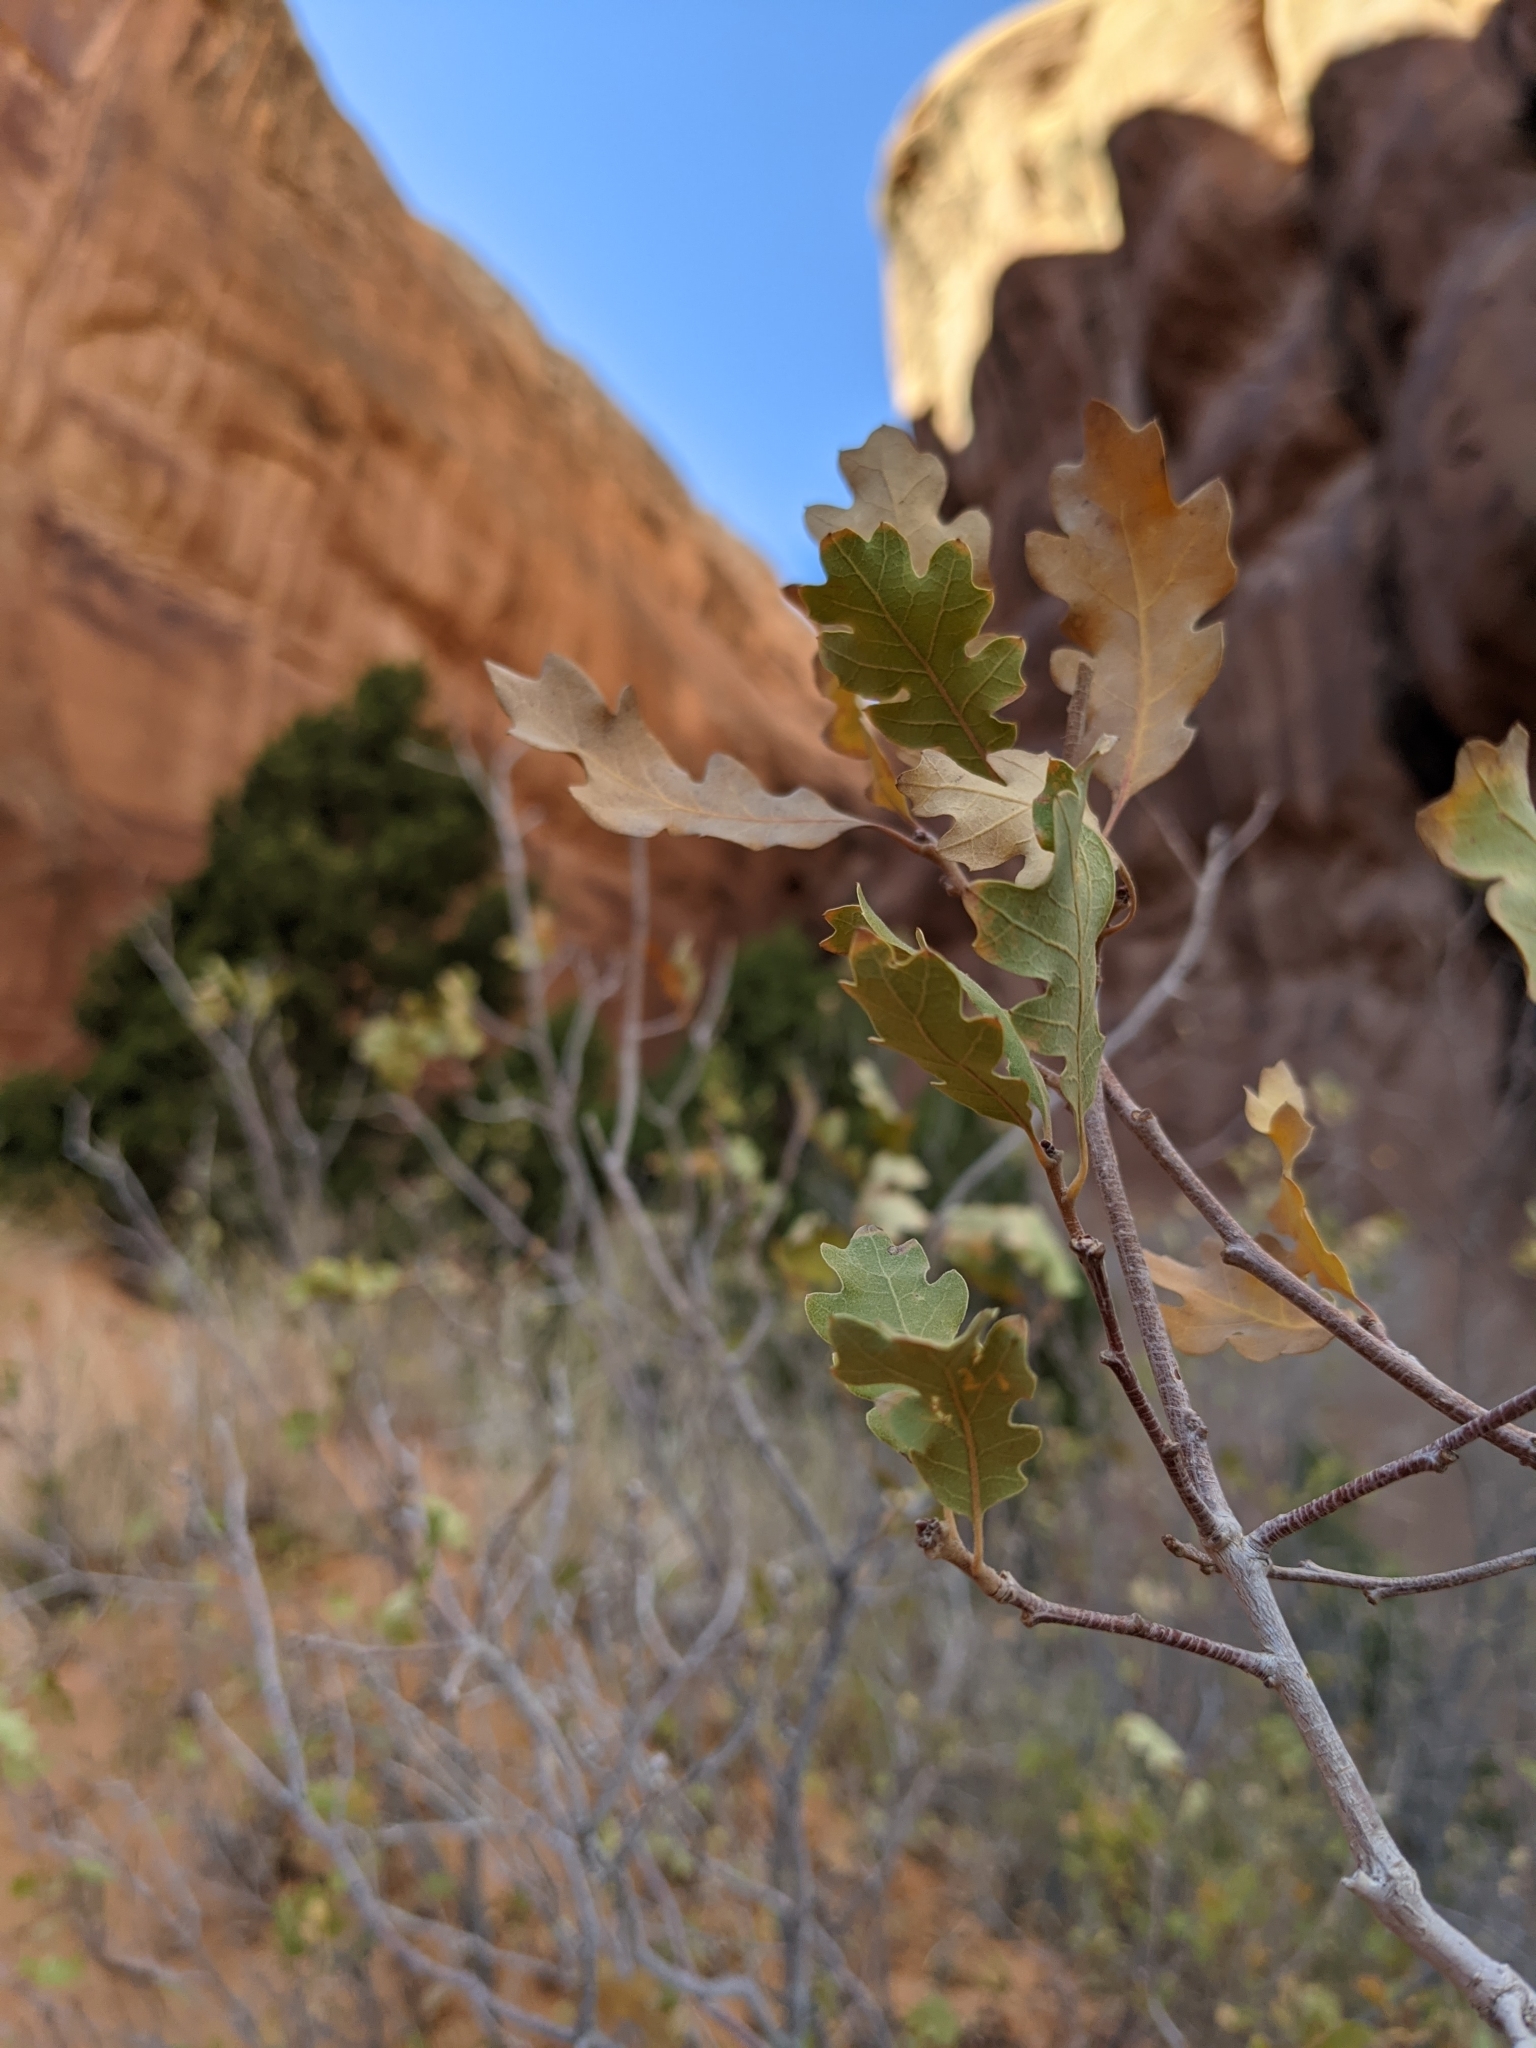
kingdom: Plantae
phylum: Tracheophyta
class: Magnoliopsida
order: Fagales
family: Fagaceae
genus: Quercus
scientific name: Quercus gambelii
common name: Gambel oak
